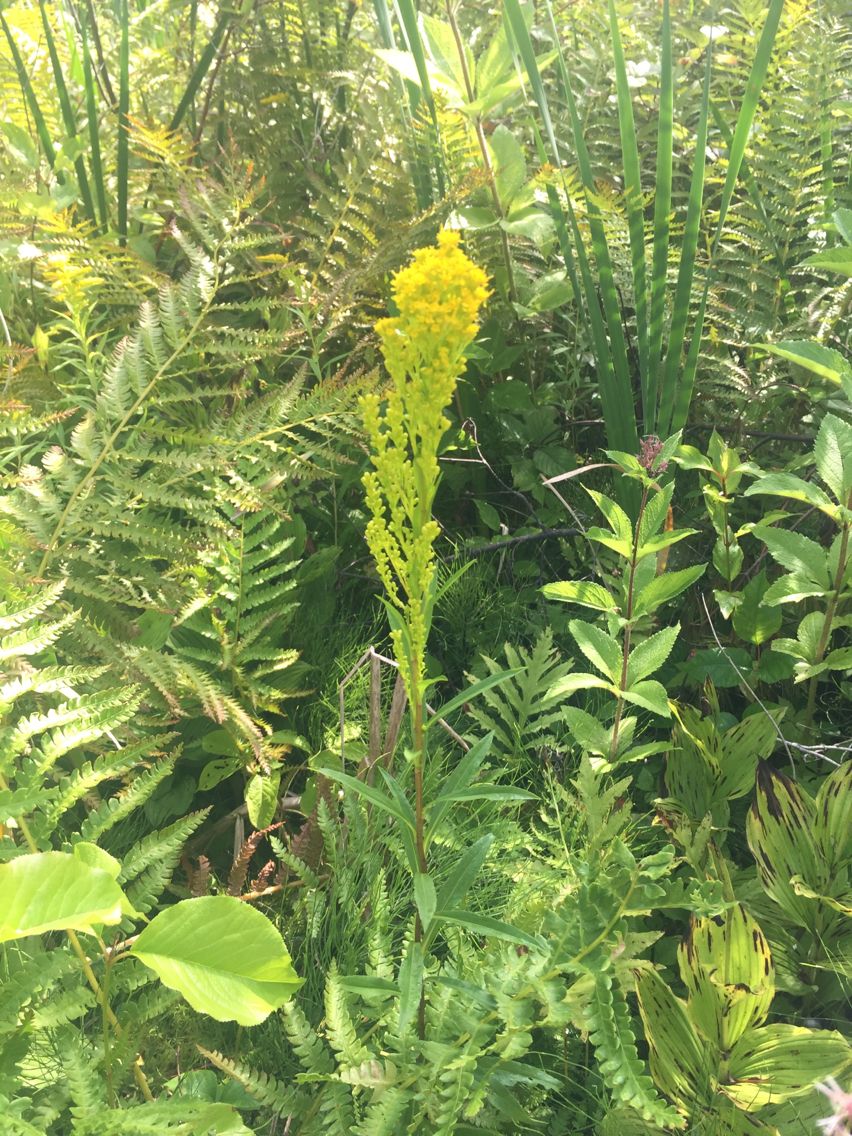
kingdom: Plantae
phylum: Tracheophyta
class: Magnoliopsida
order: Asterales
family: Asteraceae
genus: Solidago
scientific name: Solidago uliginosa
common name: Bog goldenrod
